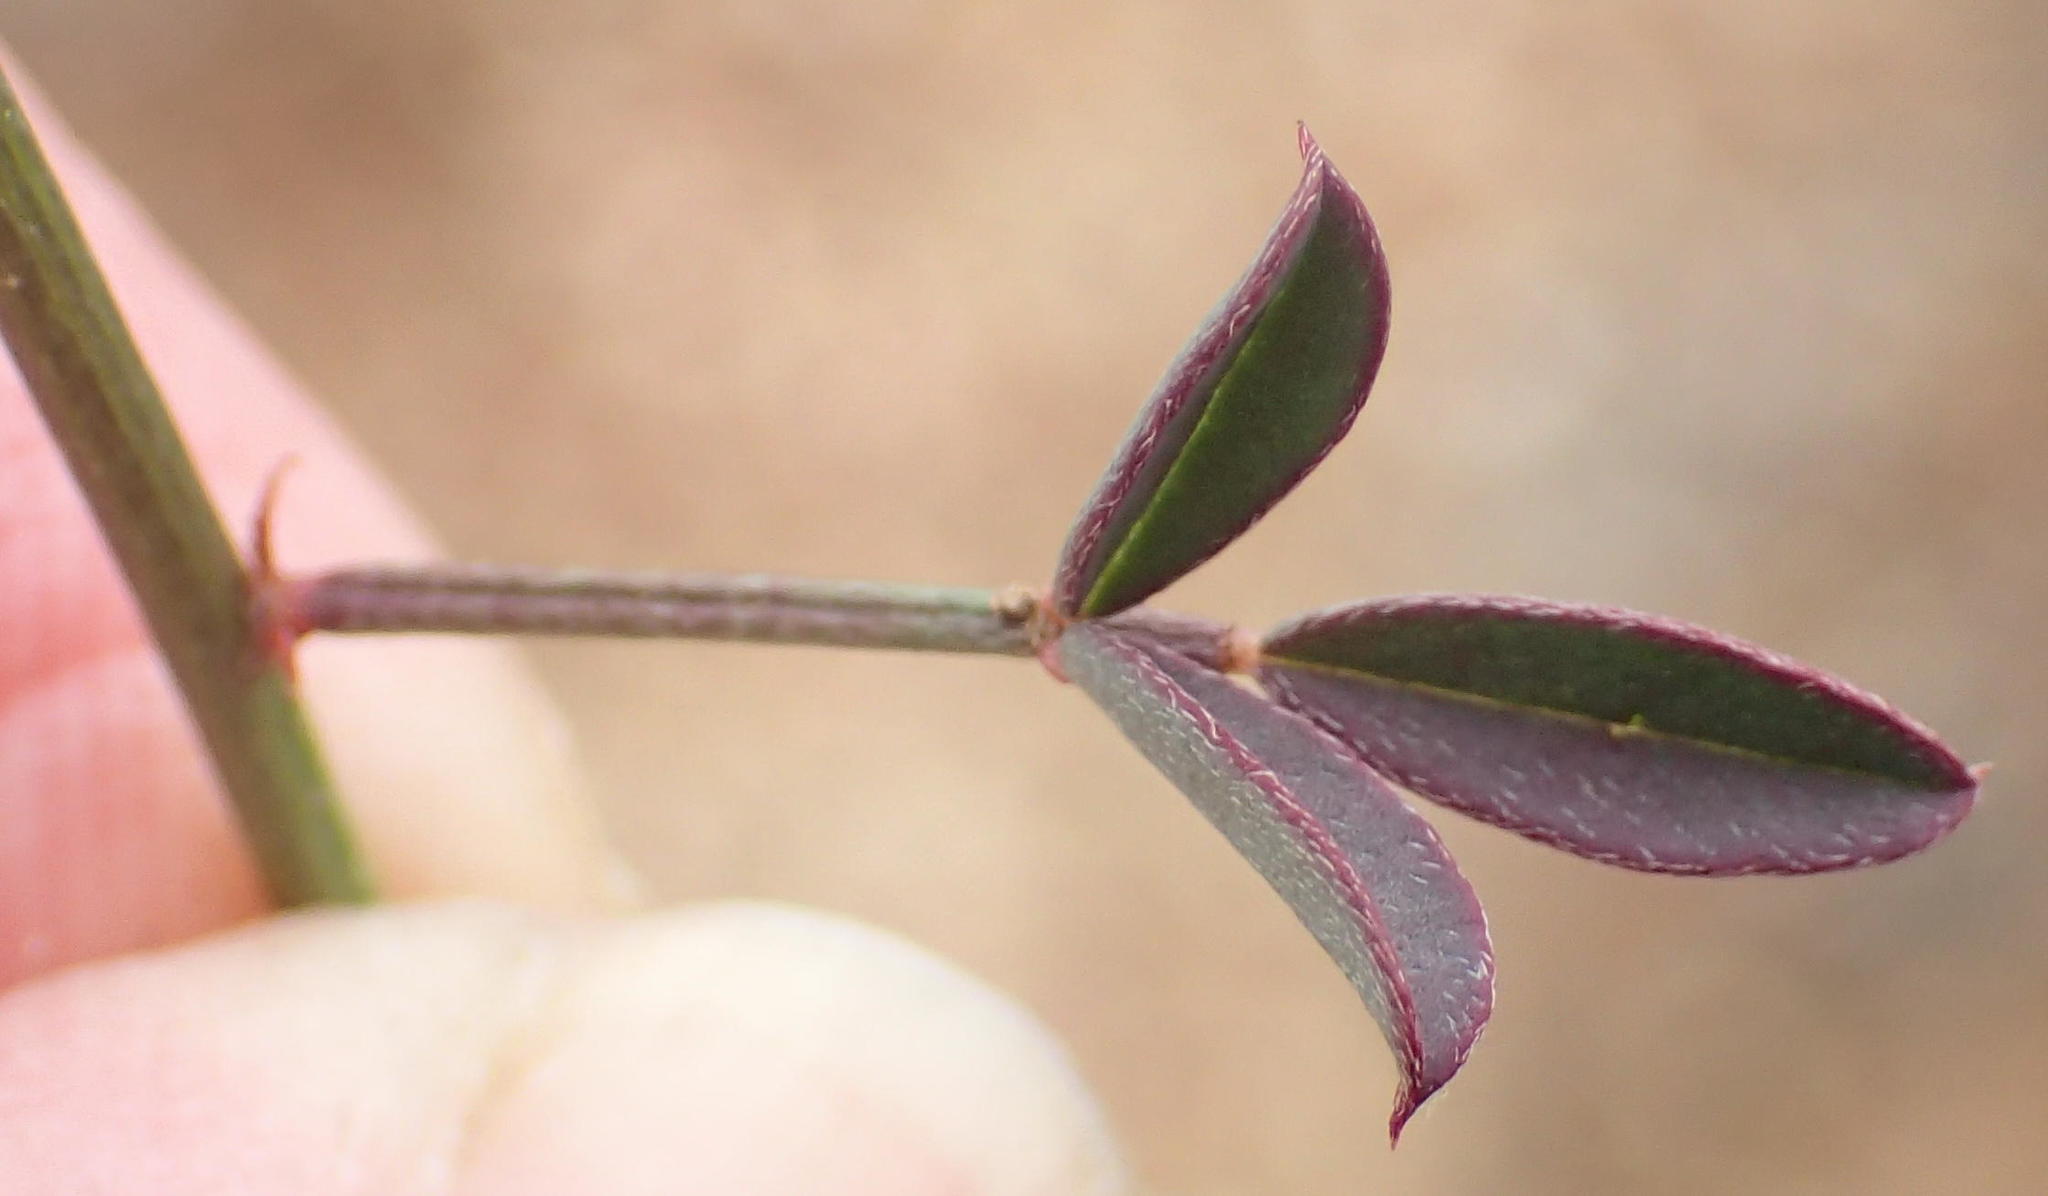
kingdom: Plantae
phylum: Tracheophyta
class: Magnoliopsida
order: Fabales
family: Fabaceae
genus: Indigofera
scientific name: Indigofera heterophylla
